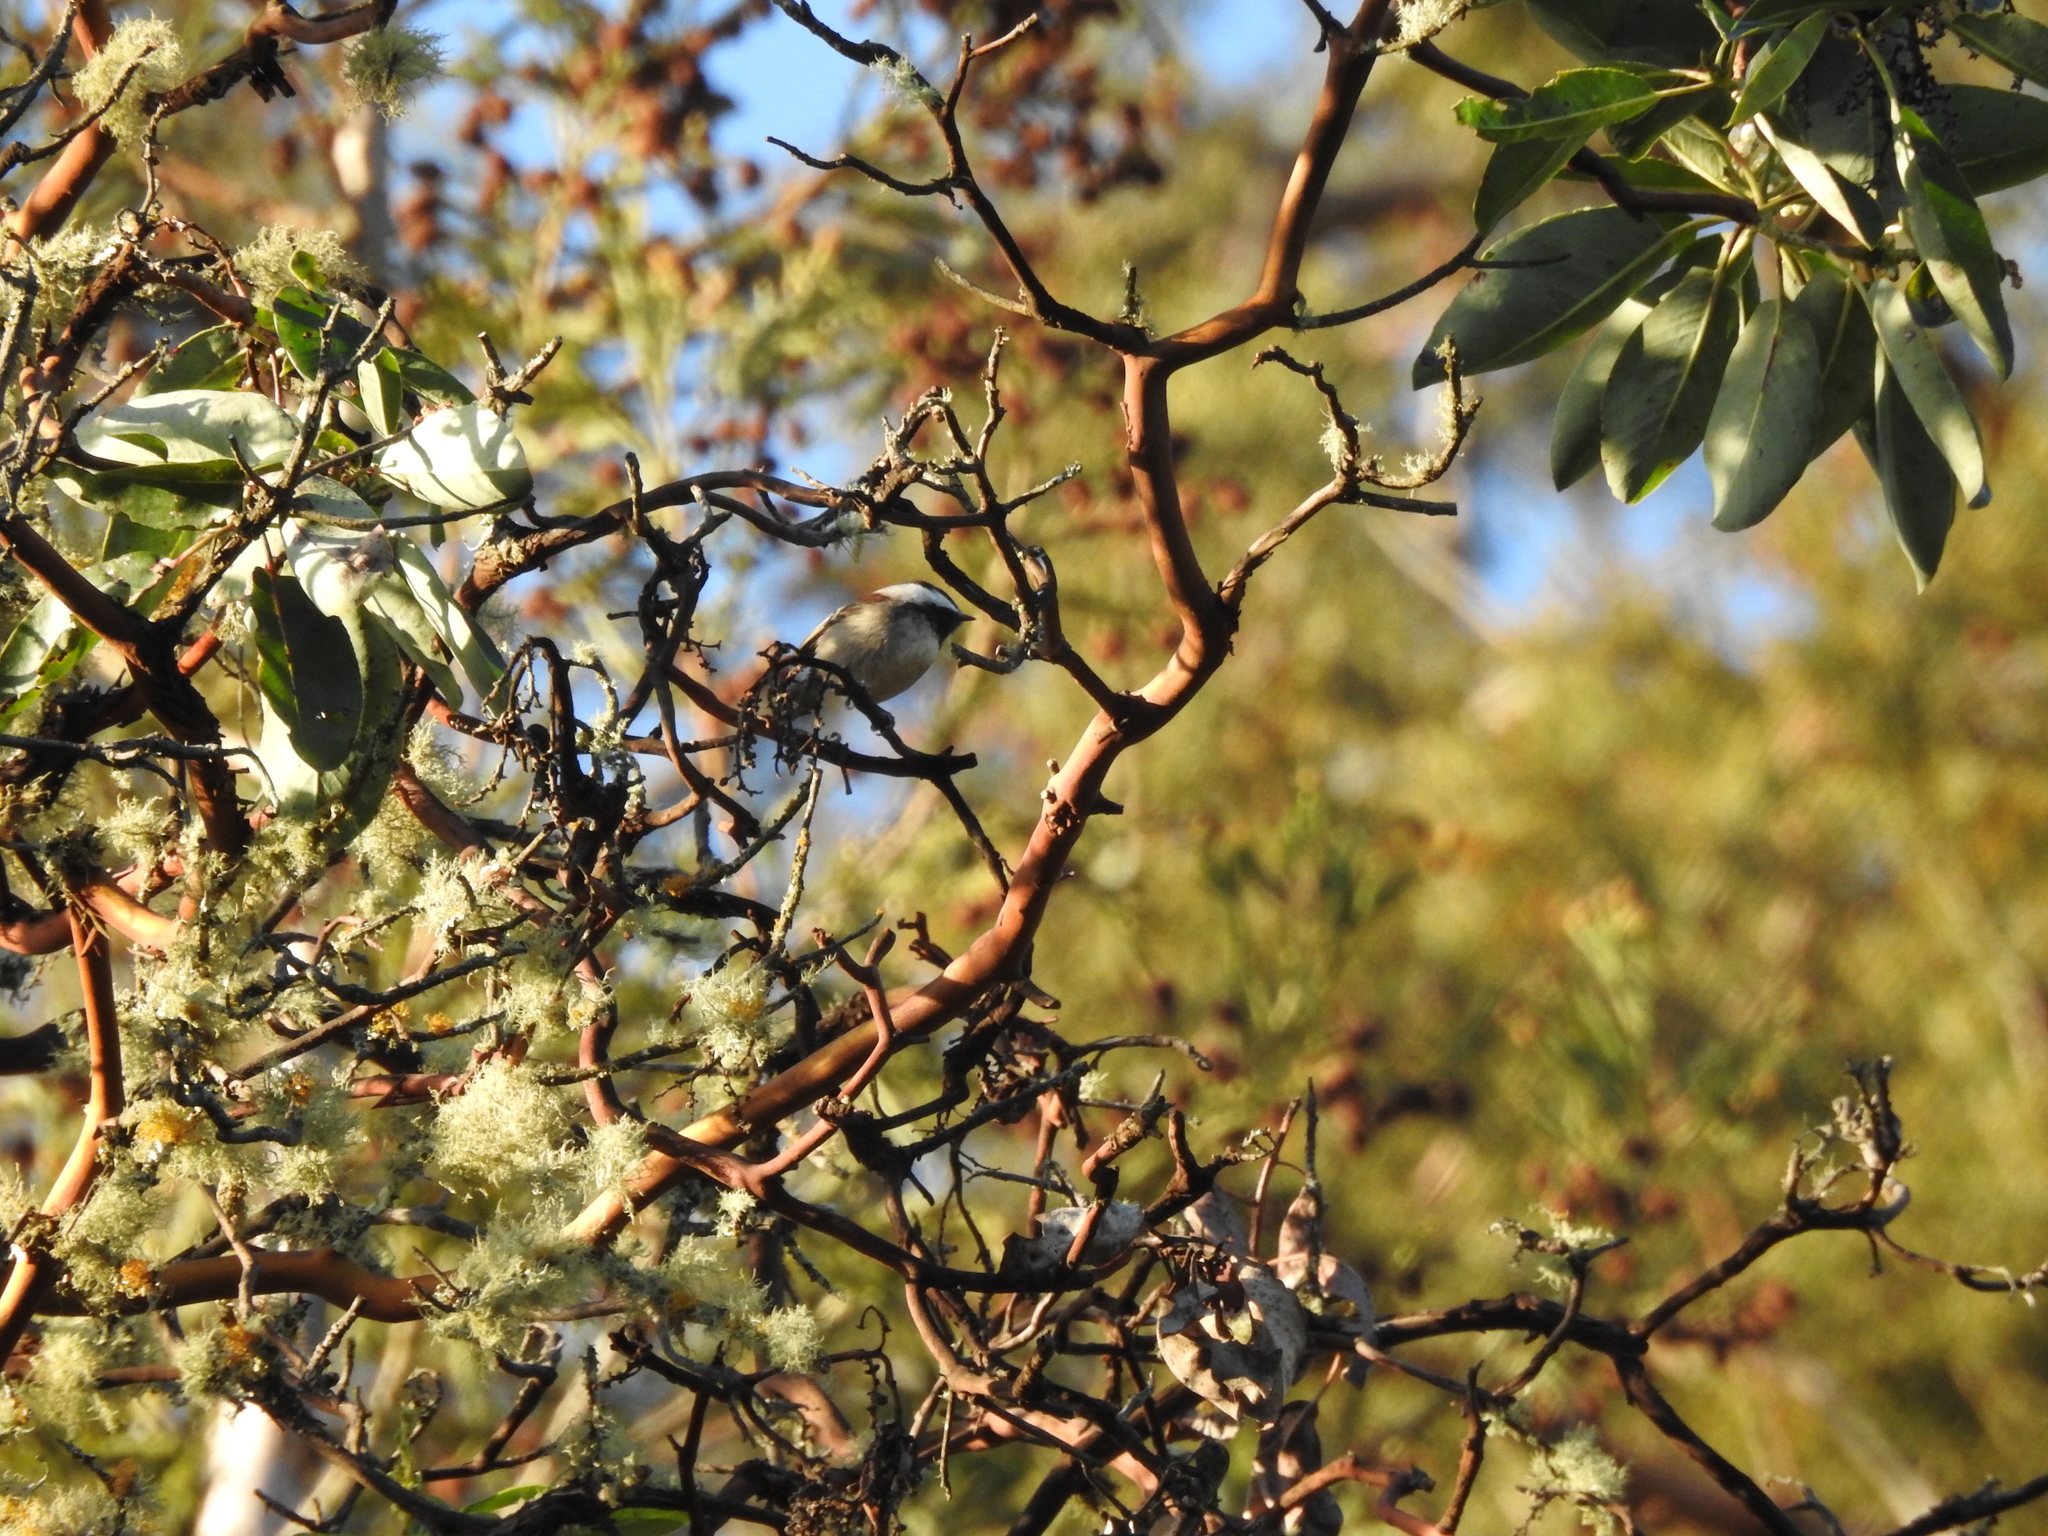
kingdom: Animalia
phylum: Chordata
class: Aves
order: Passeriformes
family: Paridae
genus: Poecile
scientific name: Poecile rufescens
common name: Chestnut-backed chickadee
